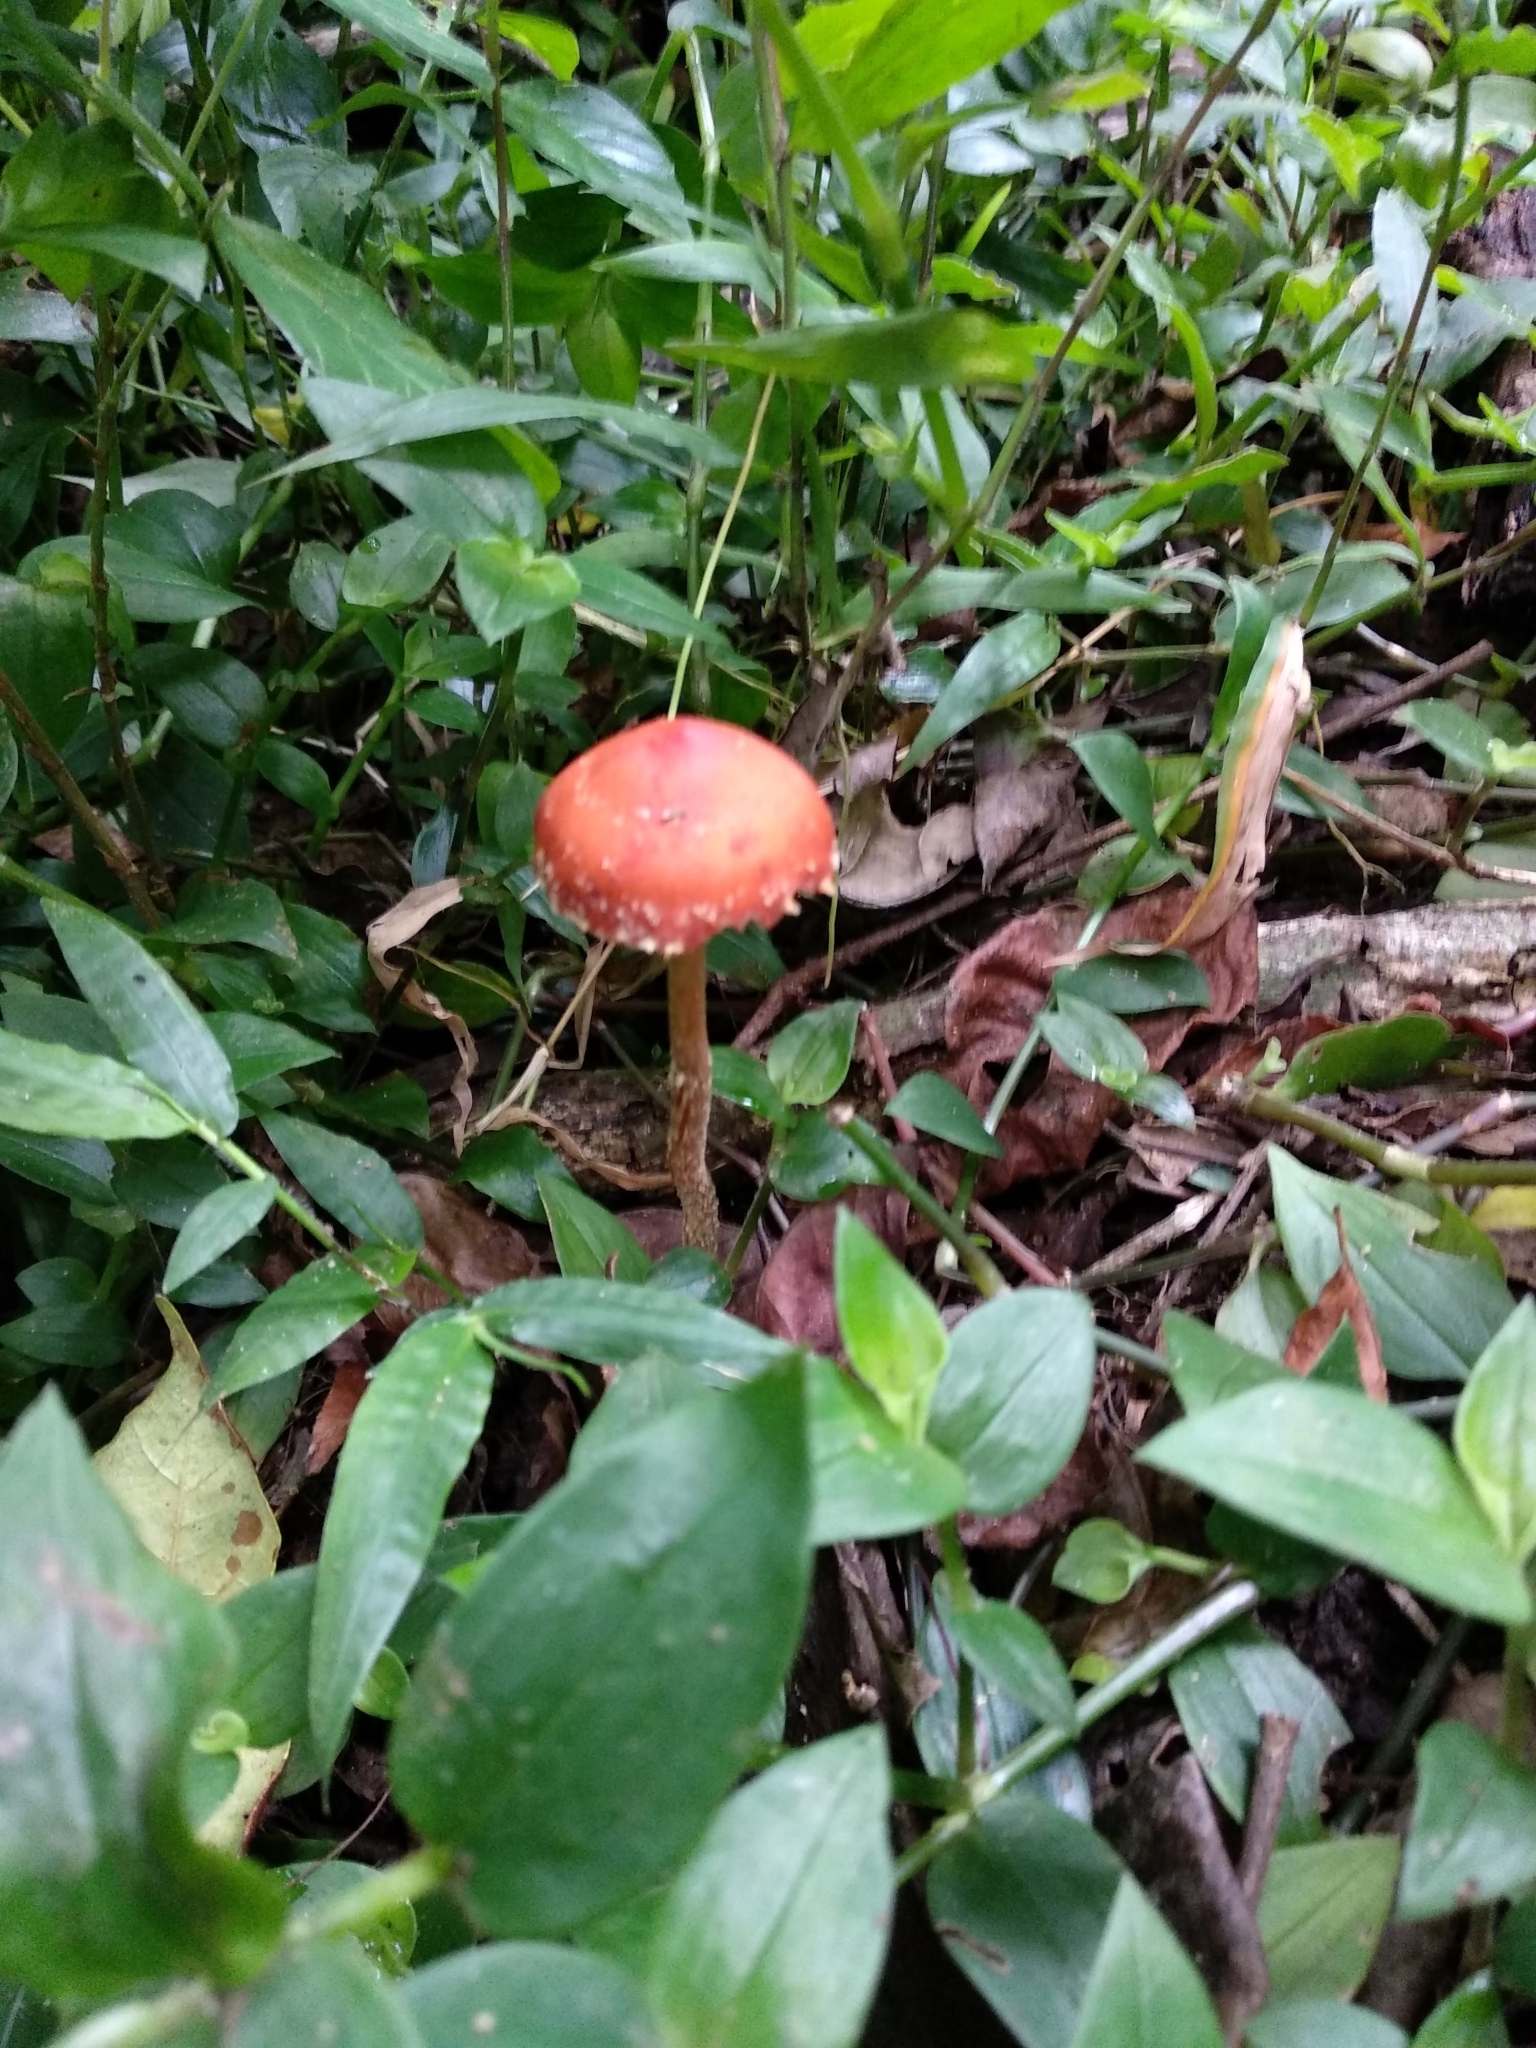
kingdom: Fungi
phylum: Basidiomycota
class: Agaricomycetes
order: Agaricales
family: Strophariaceae
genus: Leratiomyces
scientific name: Leratiomyces ceres
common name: Redlead roundhead
